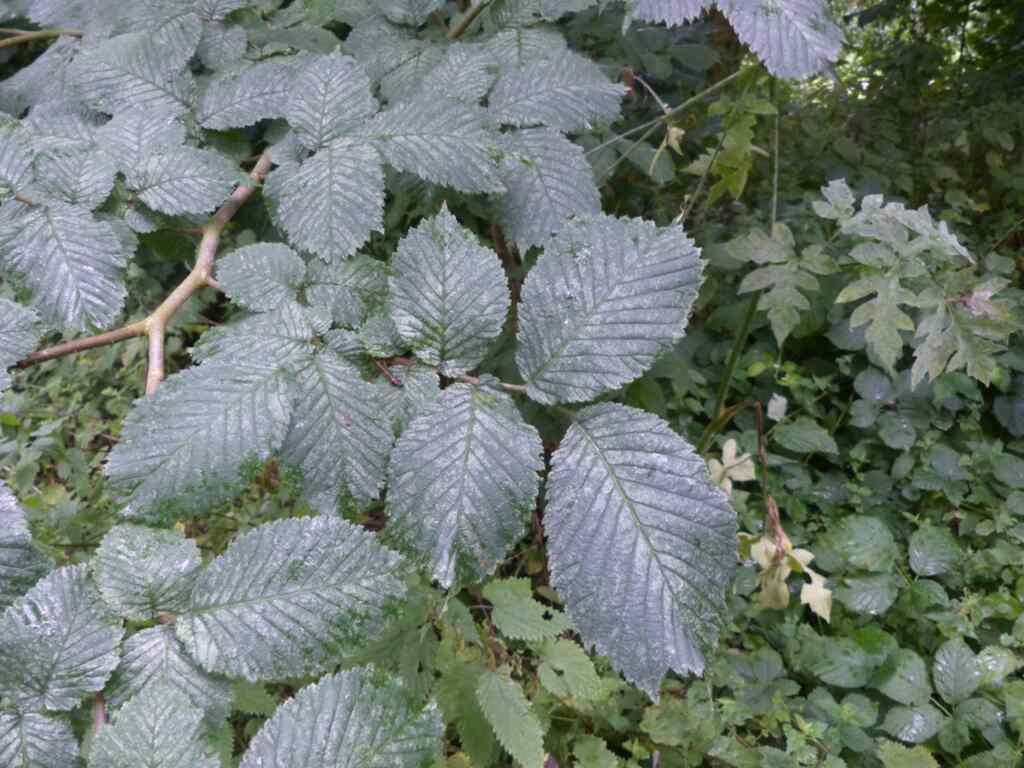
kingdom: Plantae
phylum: Tracheophyta
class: Magnoliopsida
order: Rosales
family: Ulmaceae
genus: Ulmus
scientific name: Ulmus glabra
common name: Wych elm
